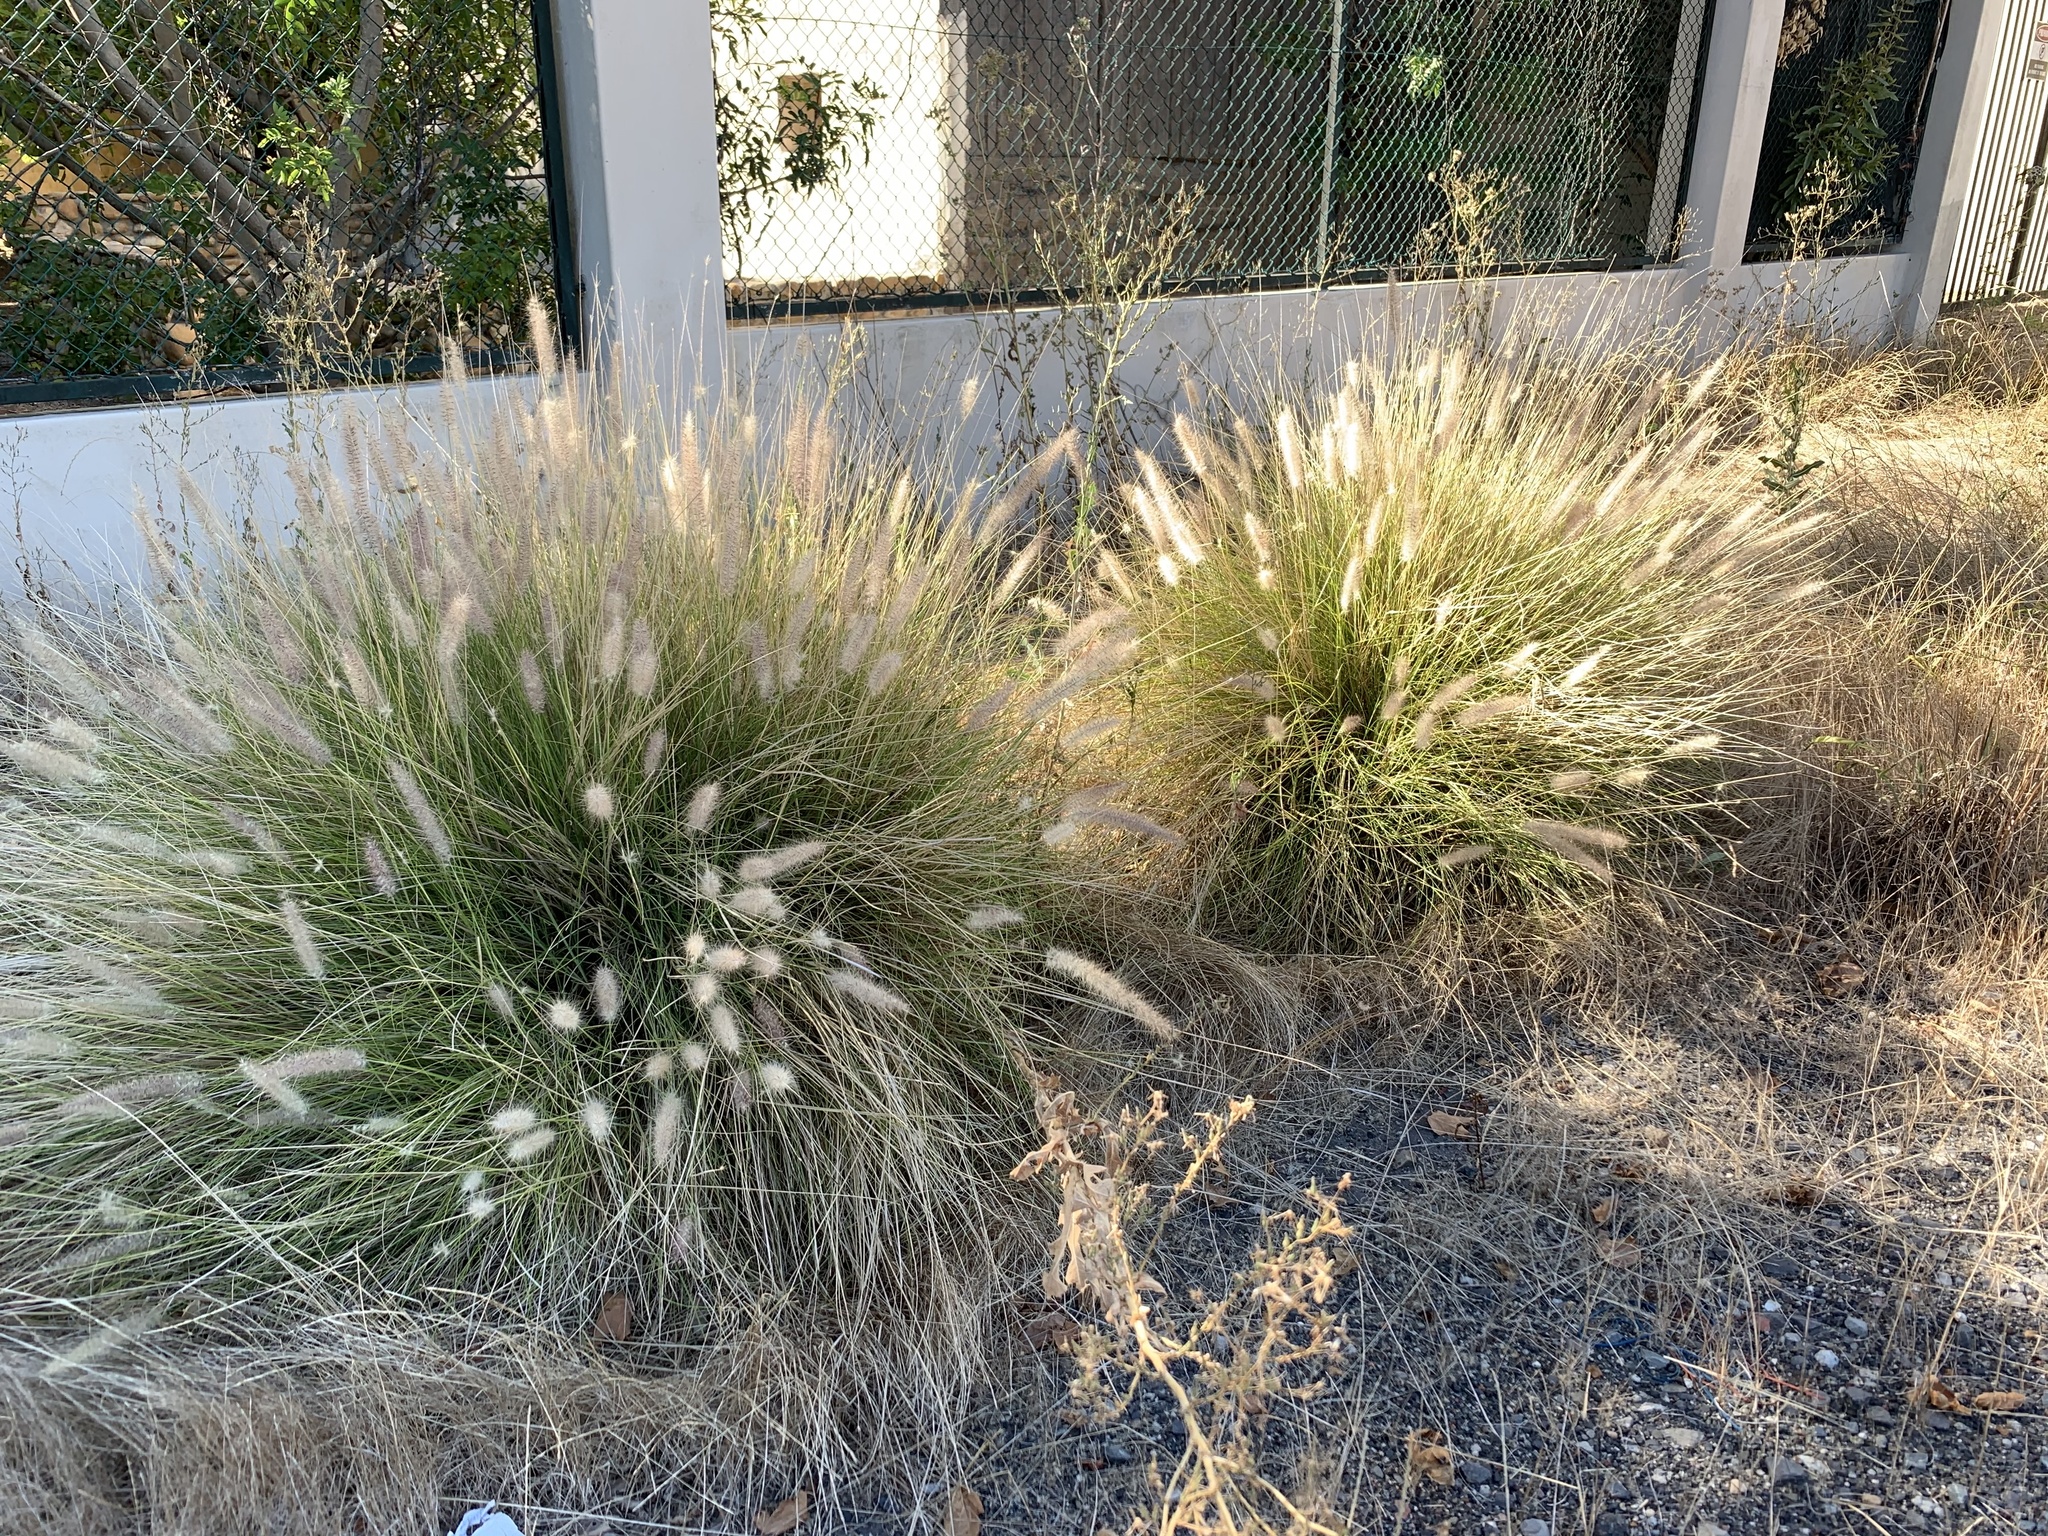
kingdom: Plantae
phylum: Tracheophyta
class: Liliopsida
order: Poales
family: Poaceae
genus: Cenchrus
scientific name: Cenchrus setaceus
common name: Crimson fountaingrass
